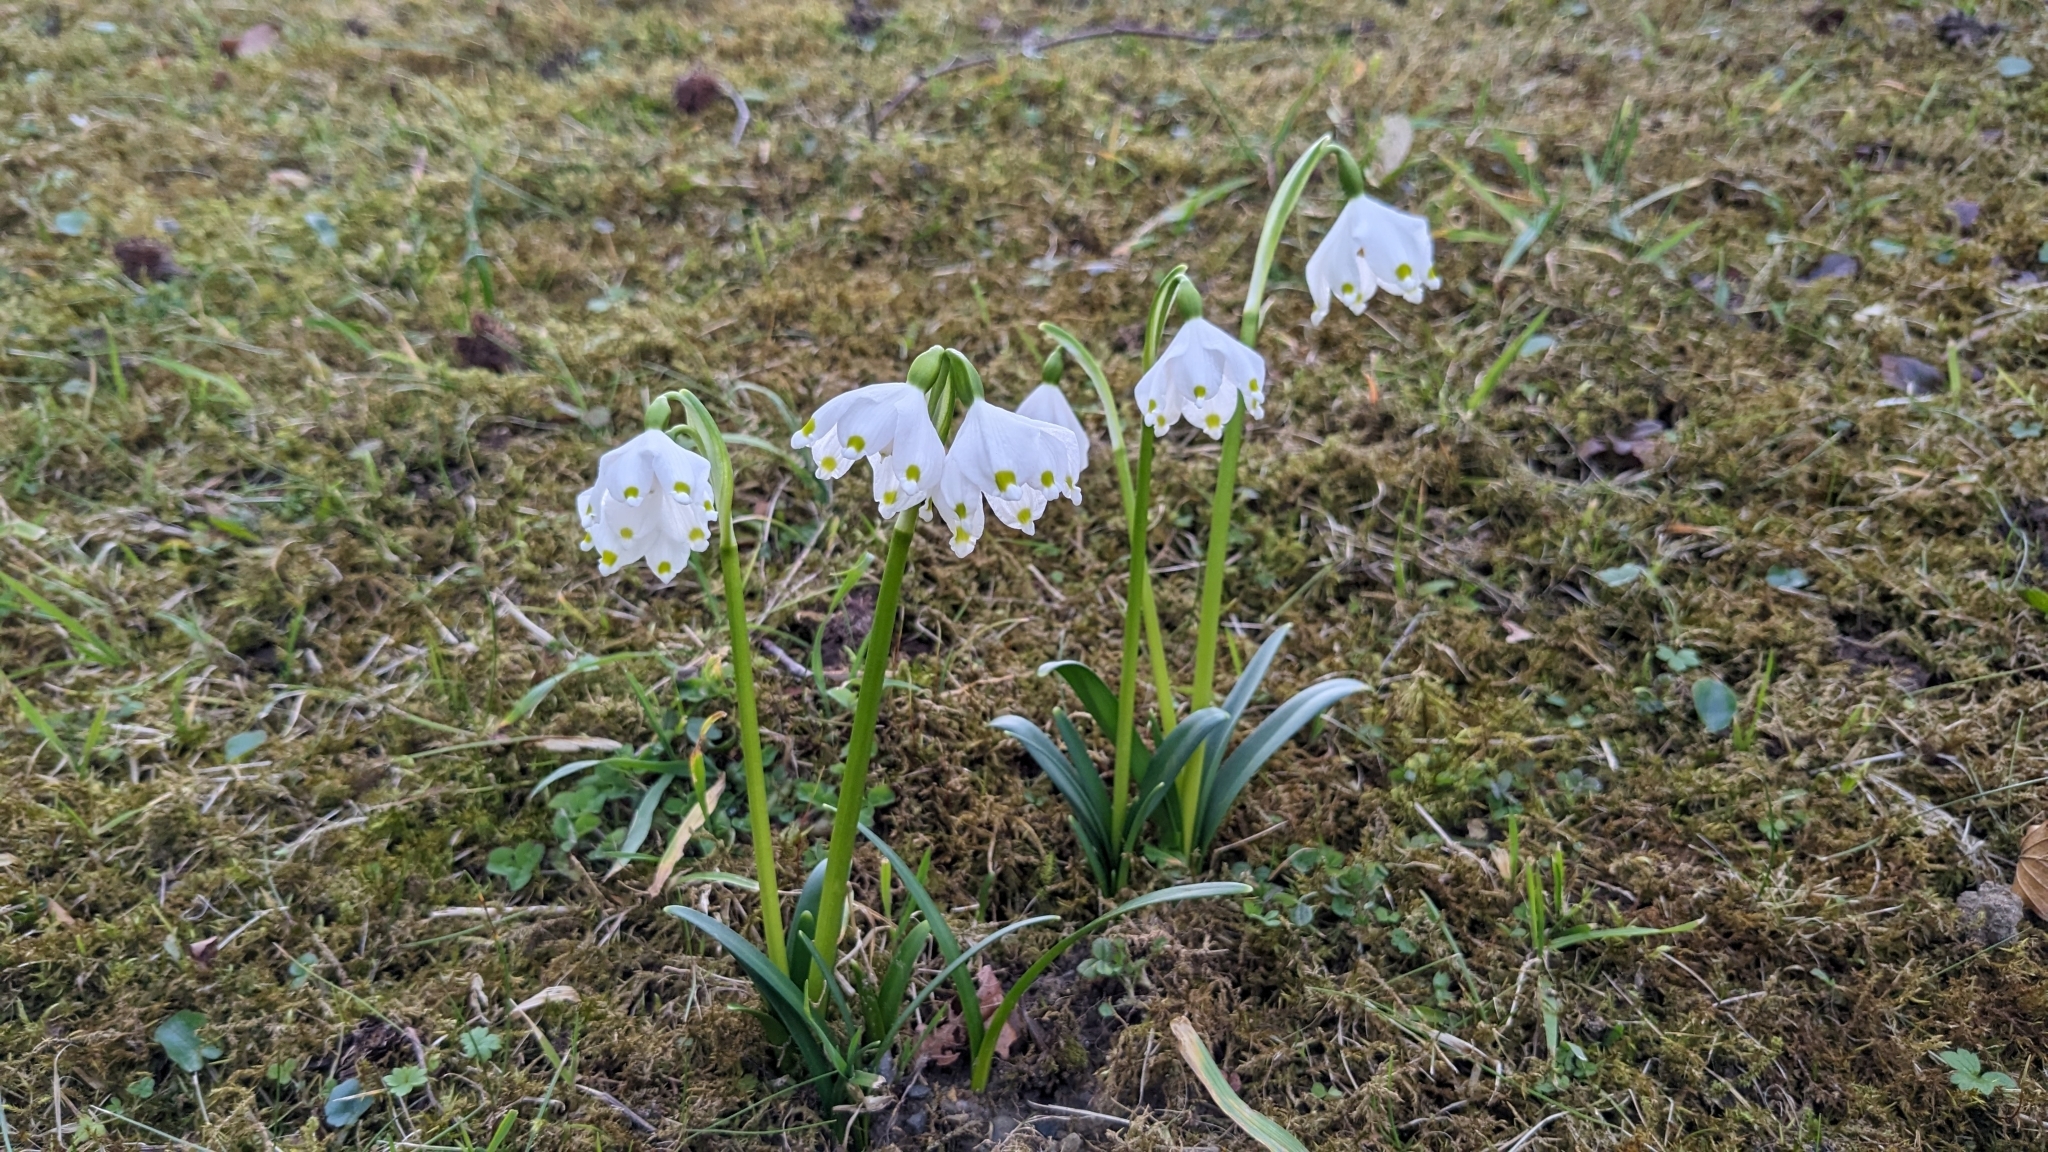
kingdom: Plantae
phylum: Tracheophyta
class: Liliopsida
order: Asparagales
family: Amaryllidaceae
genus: Leucojum
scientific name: Leucojum vernum
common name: Spring snowflake
